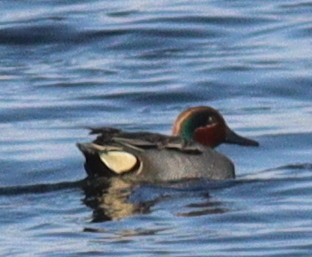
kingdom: Animalia
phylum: Chordata
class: Aves
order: Anseriformes
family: Anatidae
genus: Anas
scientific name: Anas crecca
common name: Eurasian teal
